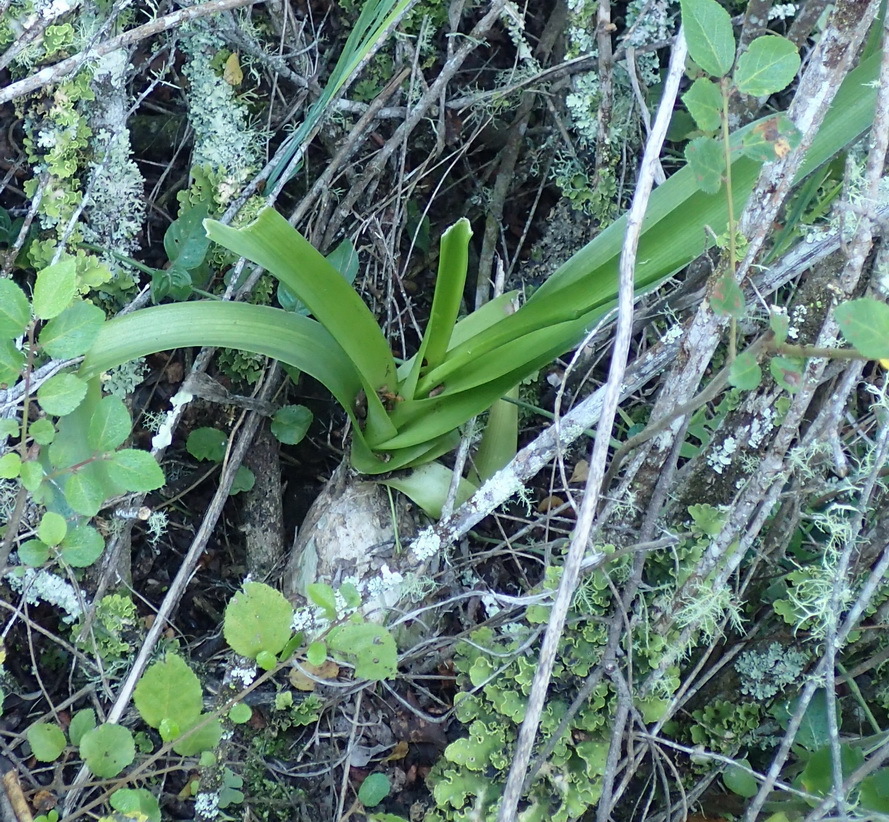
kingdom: Plantae
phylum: Tracheophyta
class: Liliopsida
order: Asparagales
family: Asparagaceae
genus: Albuca
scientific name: Albuca bracteata
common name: Sea-onion
